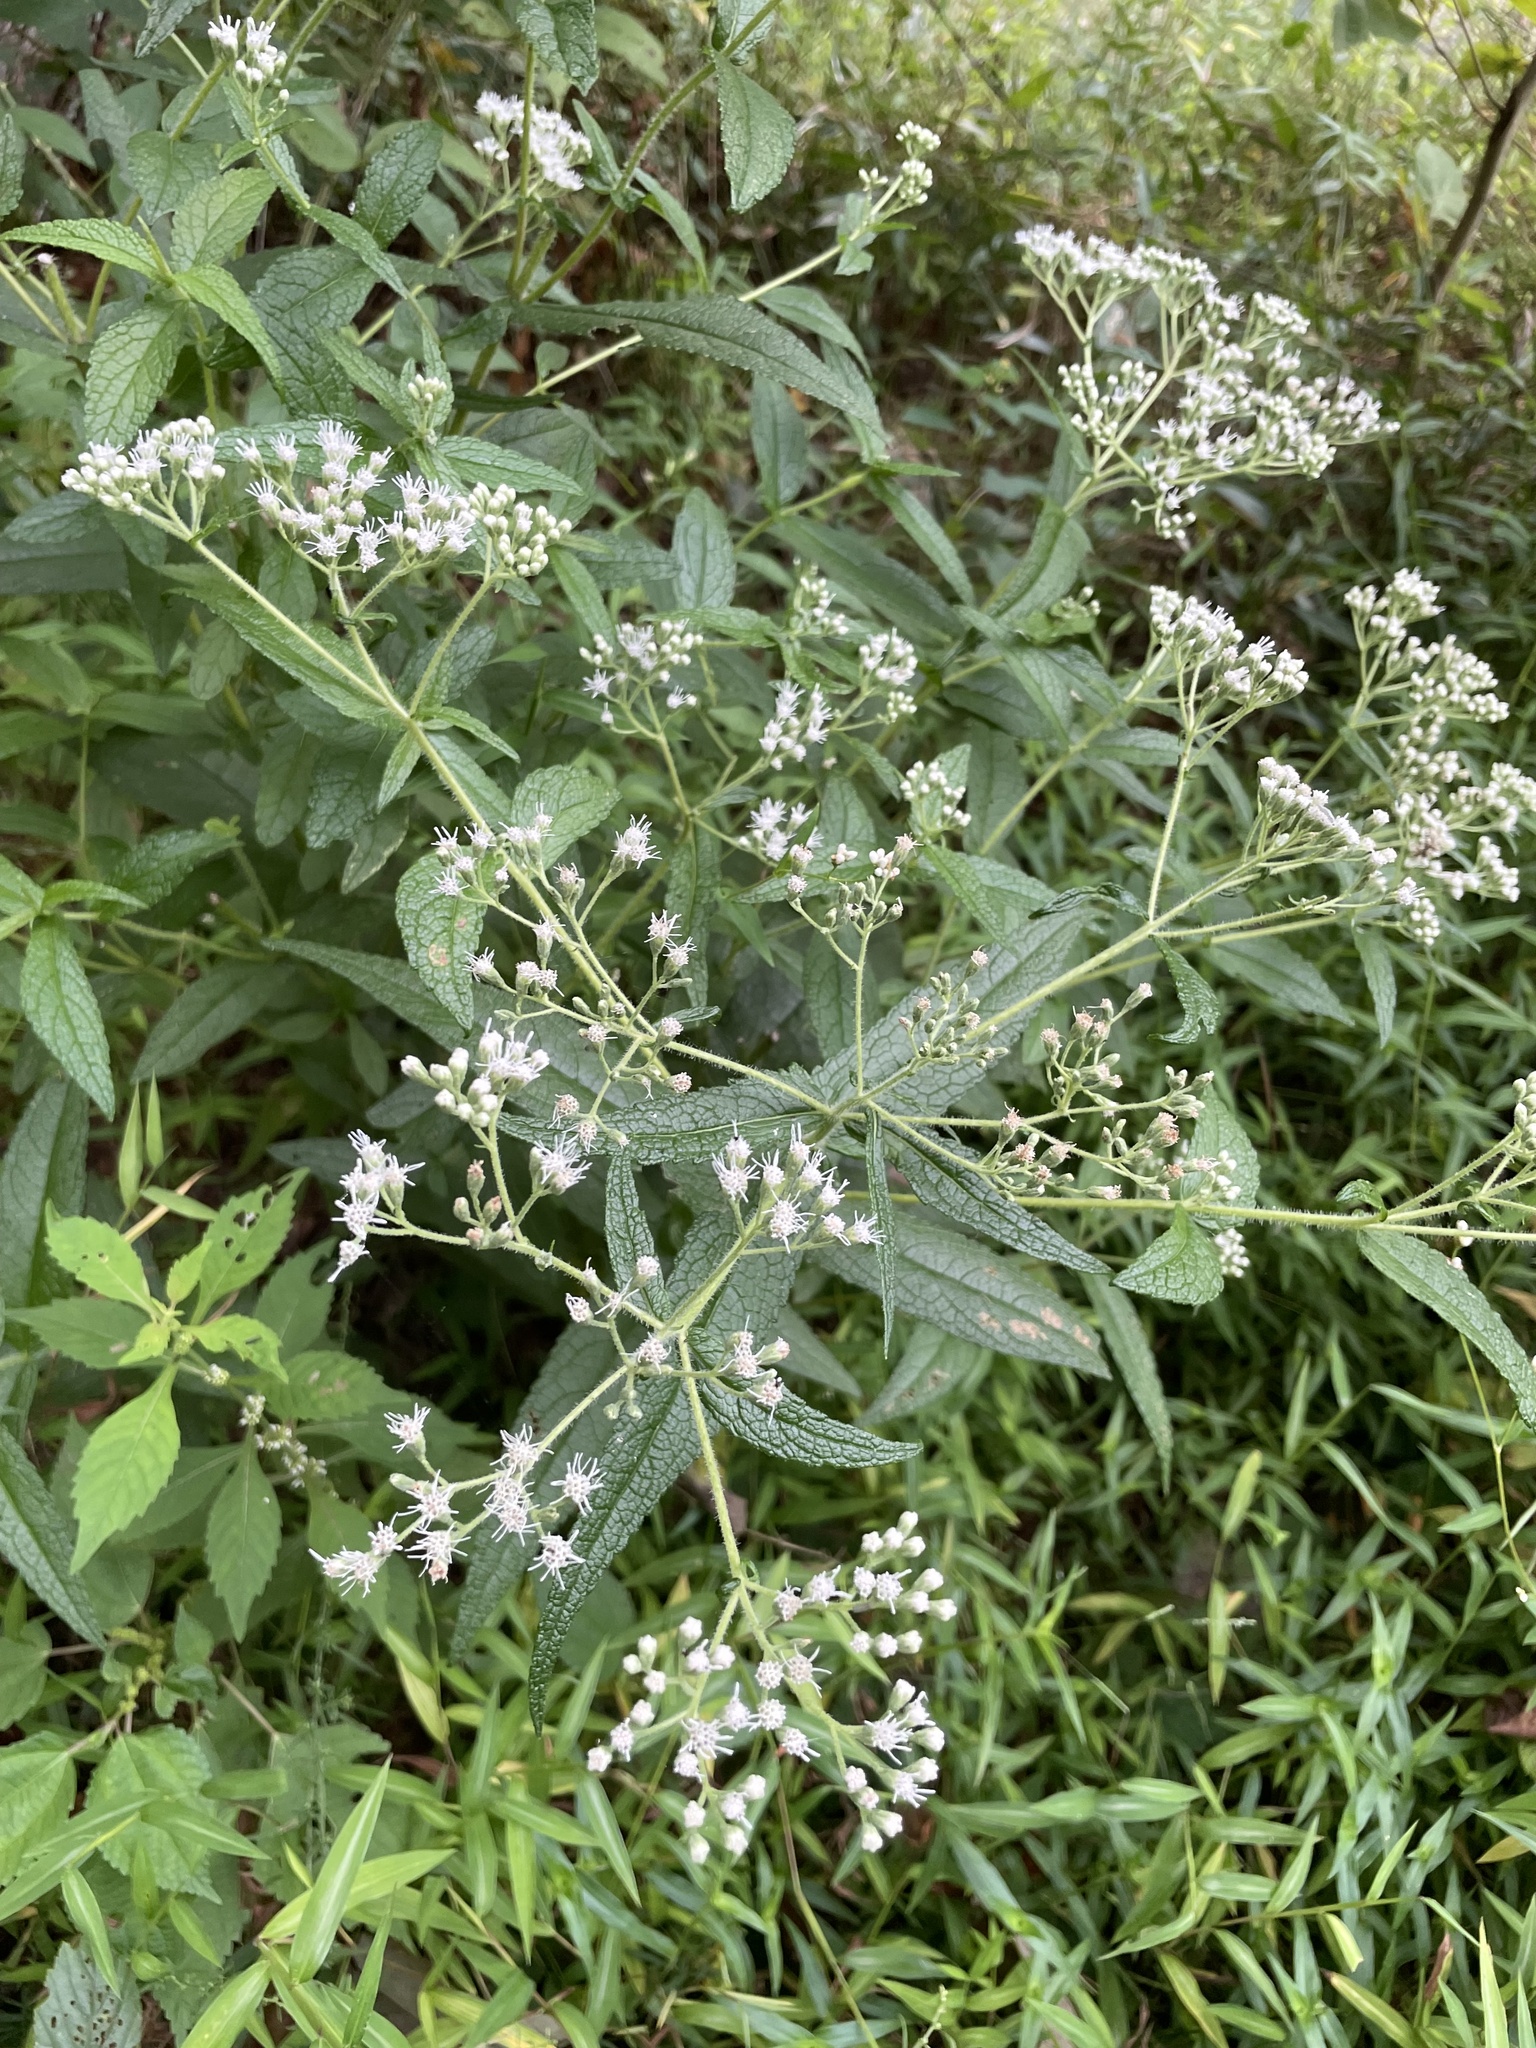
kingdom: Plantae
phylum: Tracheophyta
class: Magnoliopsida
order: Asterales
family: Asteraceae
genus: Eupatorium
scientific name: Eupatorium perfoliatum
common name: Boneset
